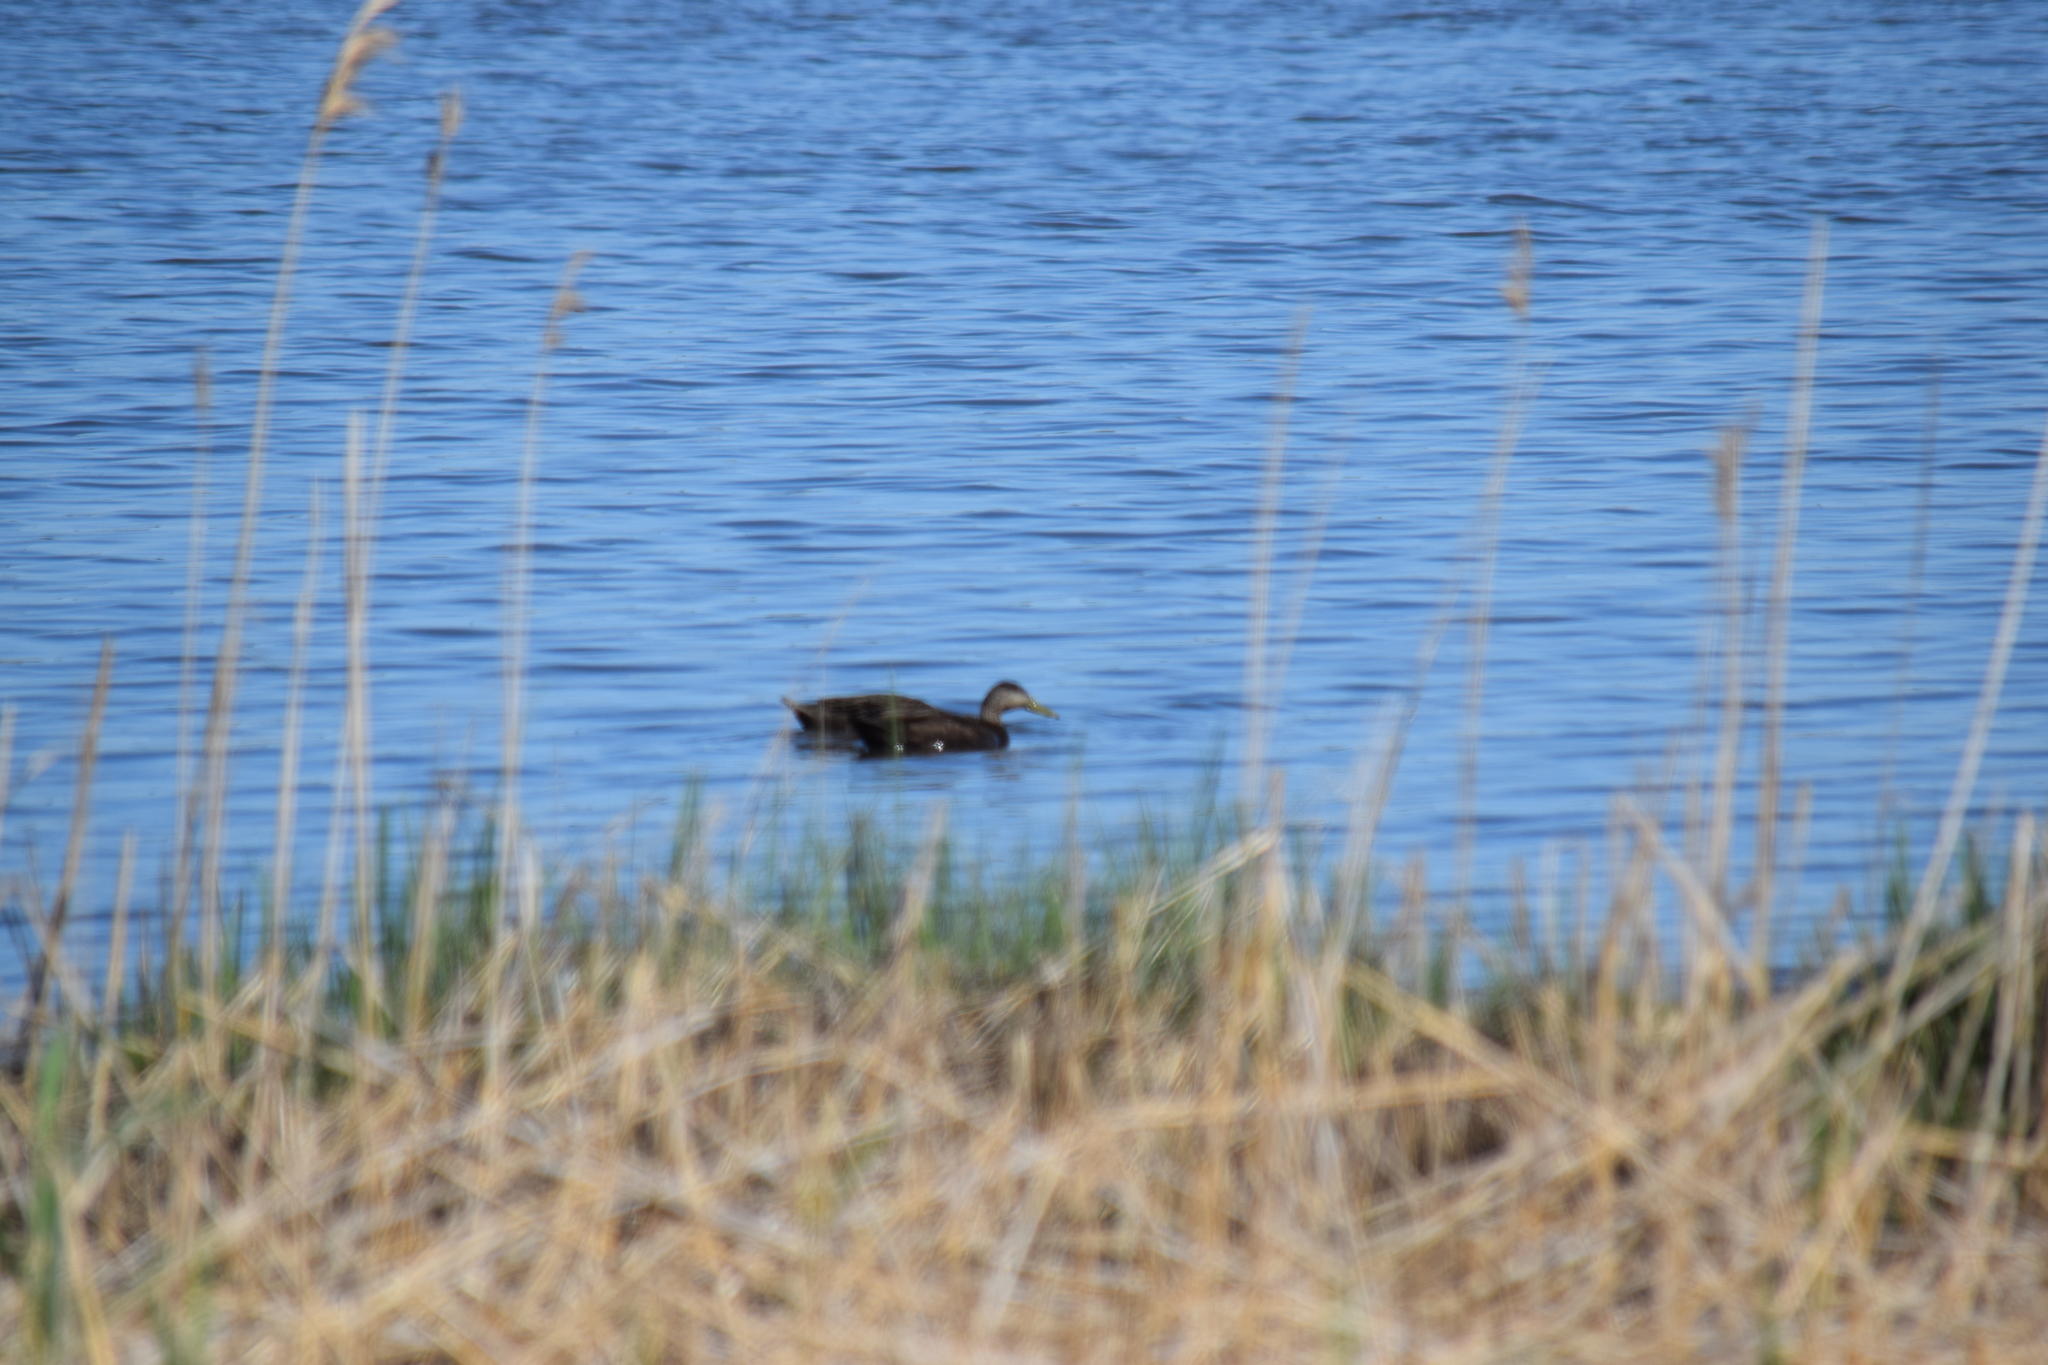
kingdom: Animalia
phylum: Chordata
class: Aves
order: Anseriformes
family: Anatidae
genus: Anas
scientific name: Anas rubripes
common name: American black duck
